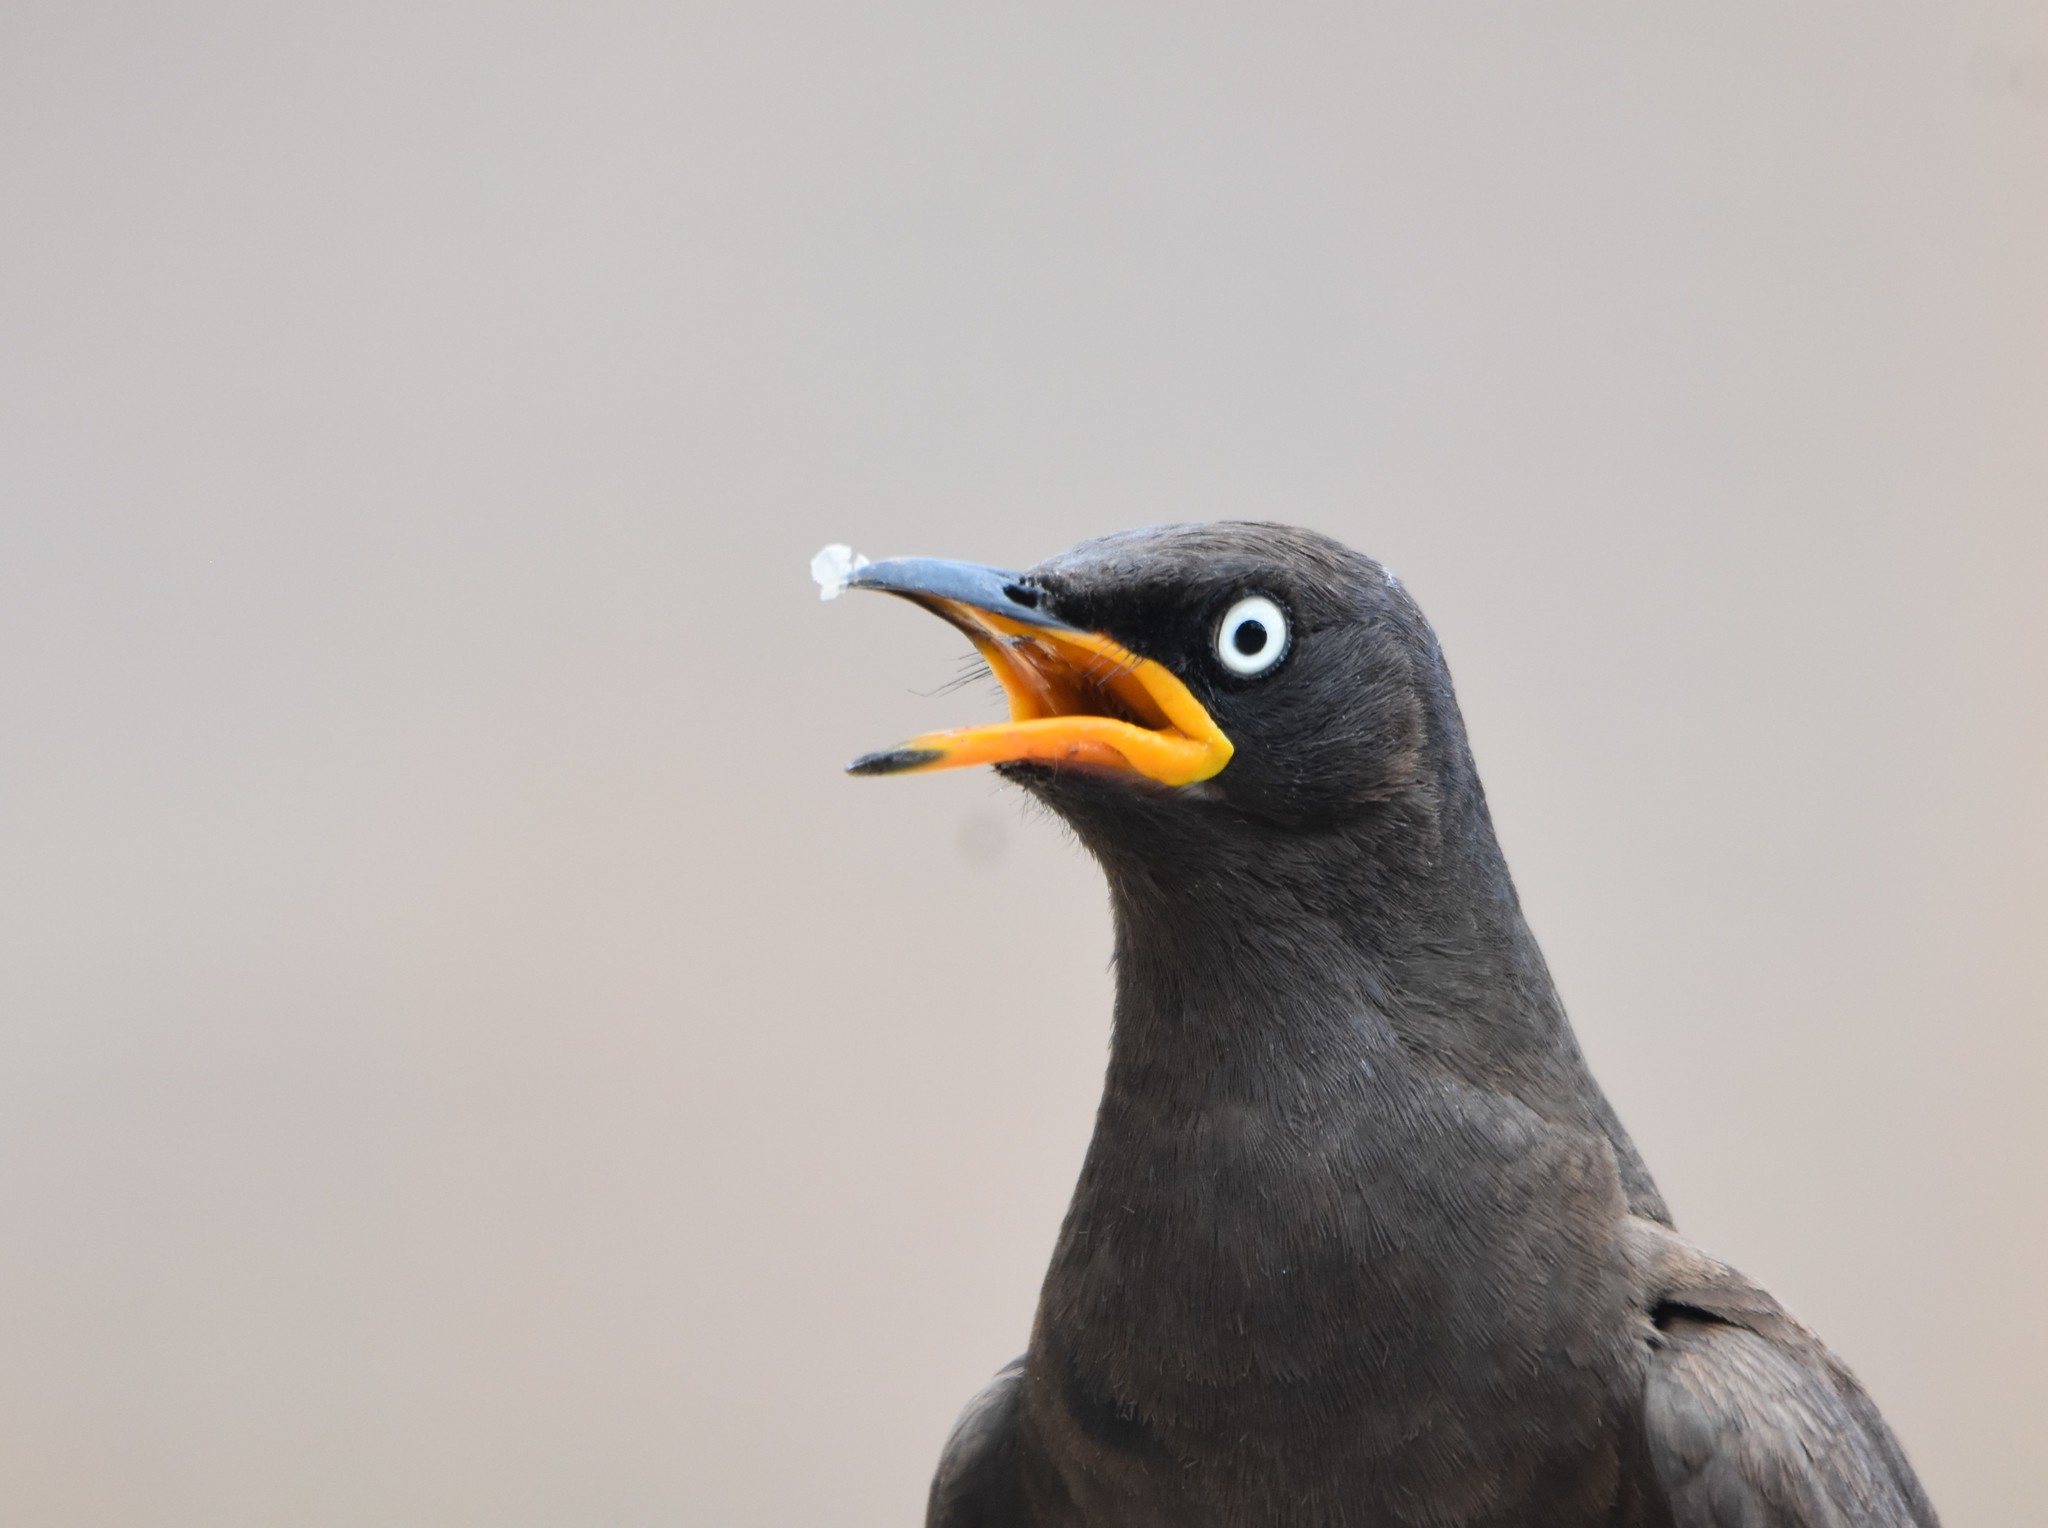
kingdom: Animalia
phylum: Chordata
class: Aves
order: Passeriformes
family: Sturnidae
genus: Lamprotornis
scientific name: Lamprotornis bicolor
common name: Pied starling
